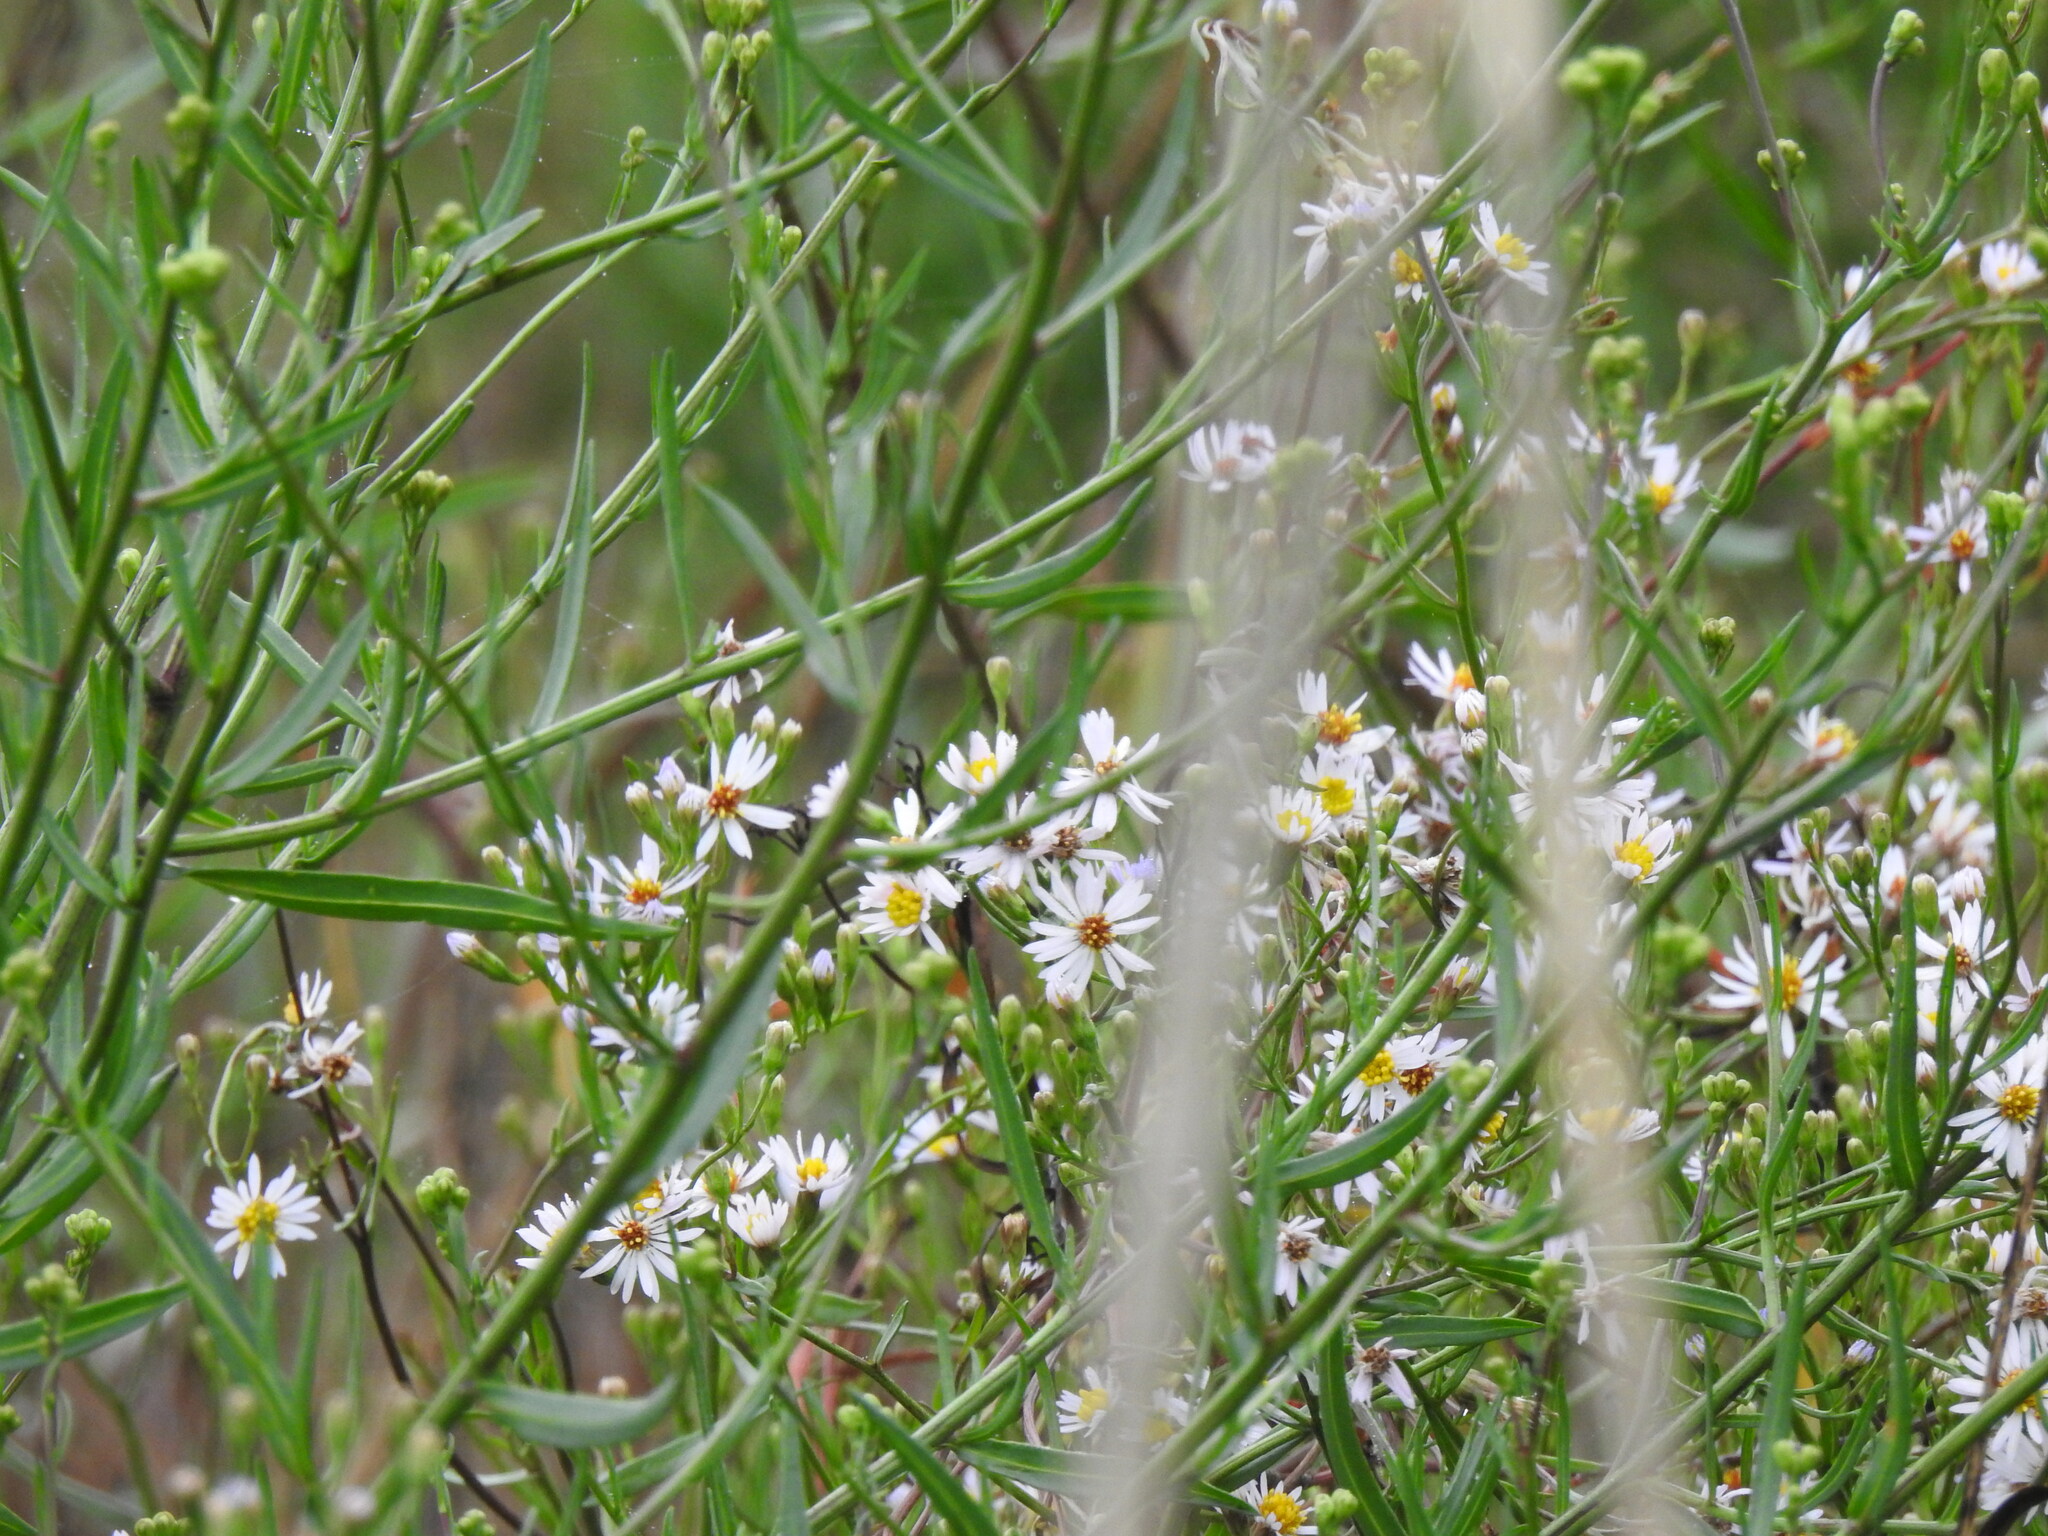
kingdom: Plantae
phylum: Tracheophyta
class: Magnoliopsida
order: Asterales
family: Asteraceae
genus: Tripolium
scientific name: Tripolium pannonicum
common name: Sea aster
